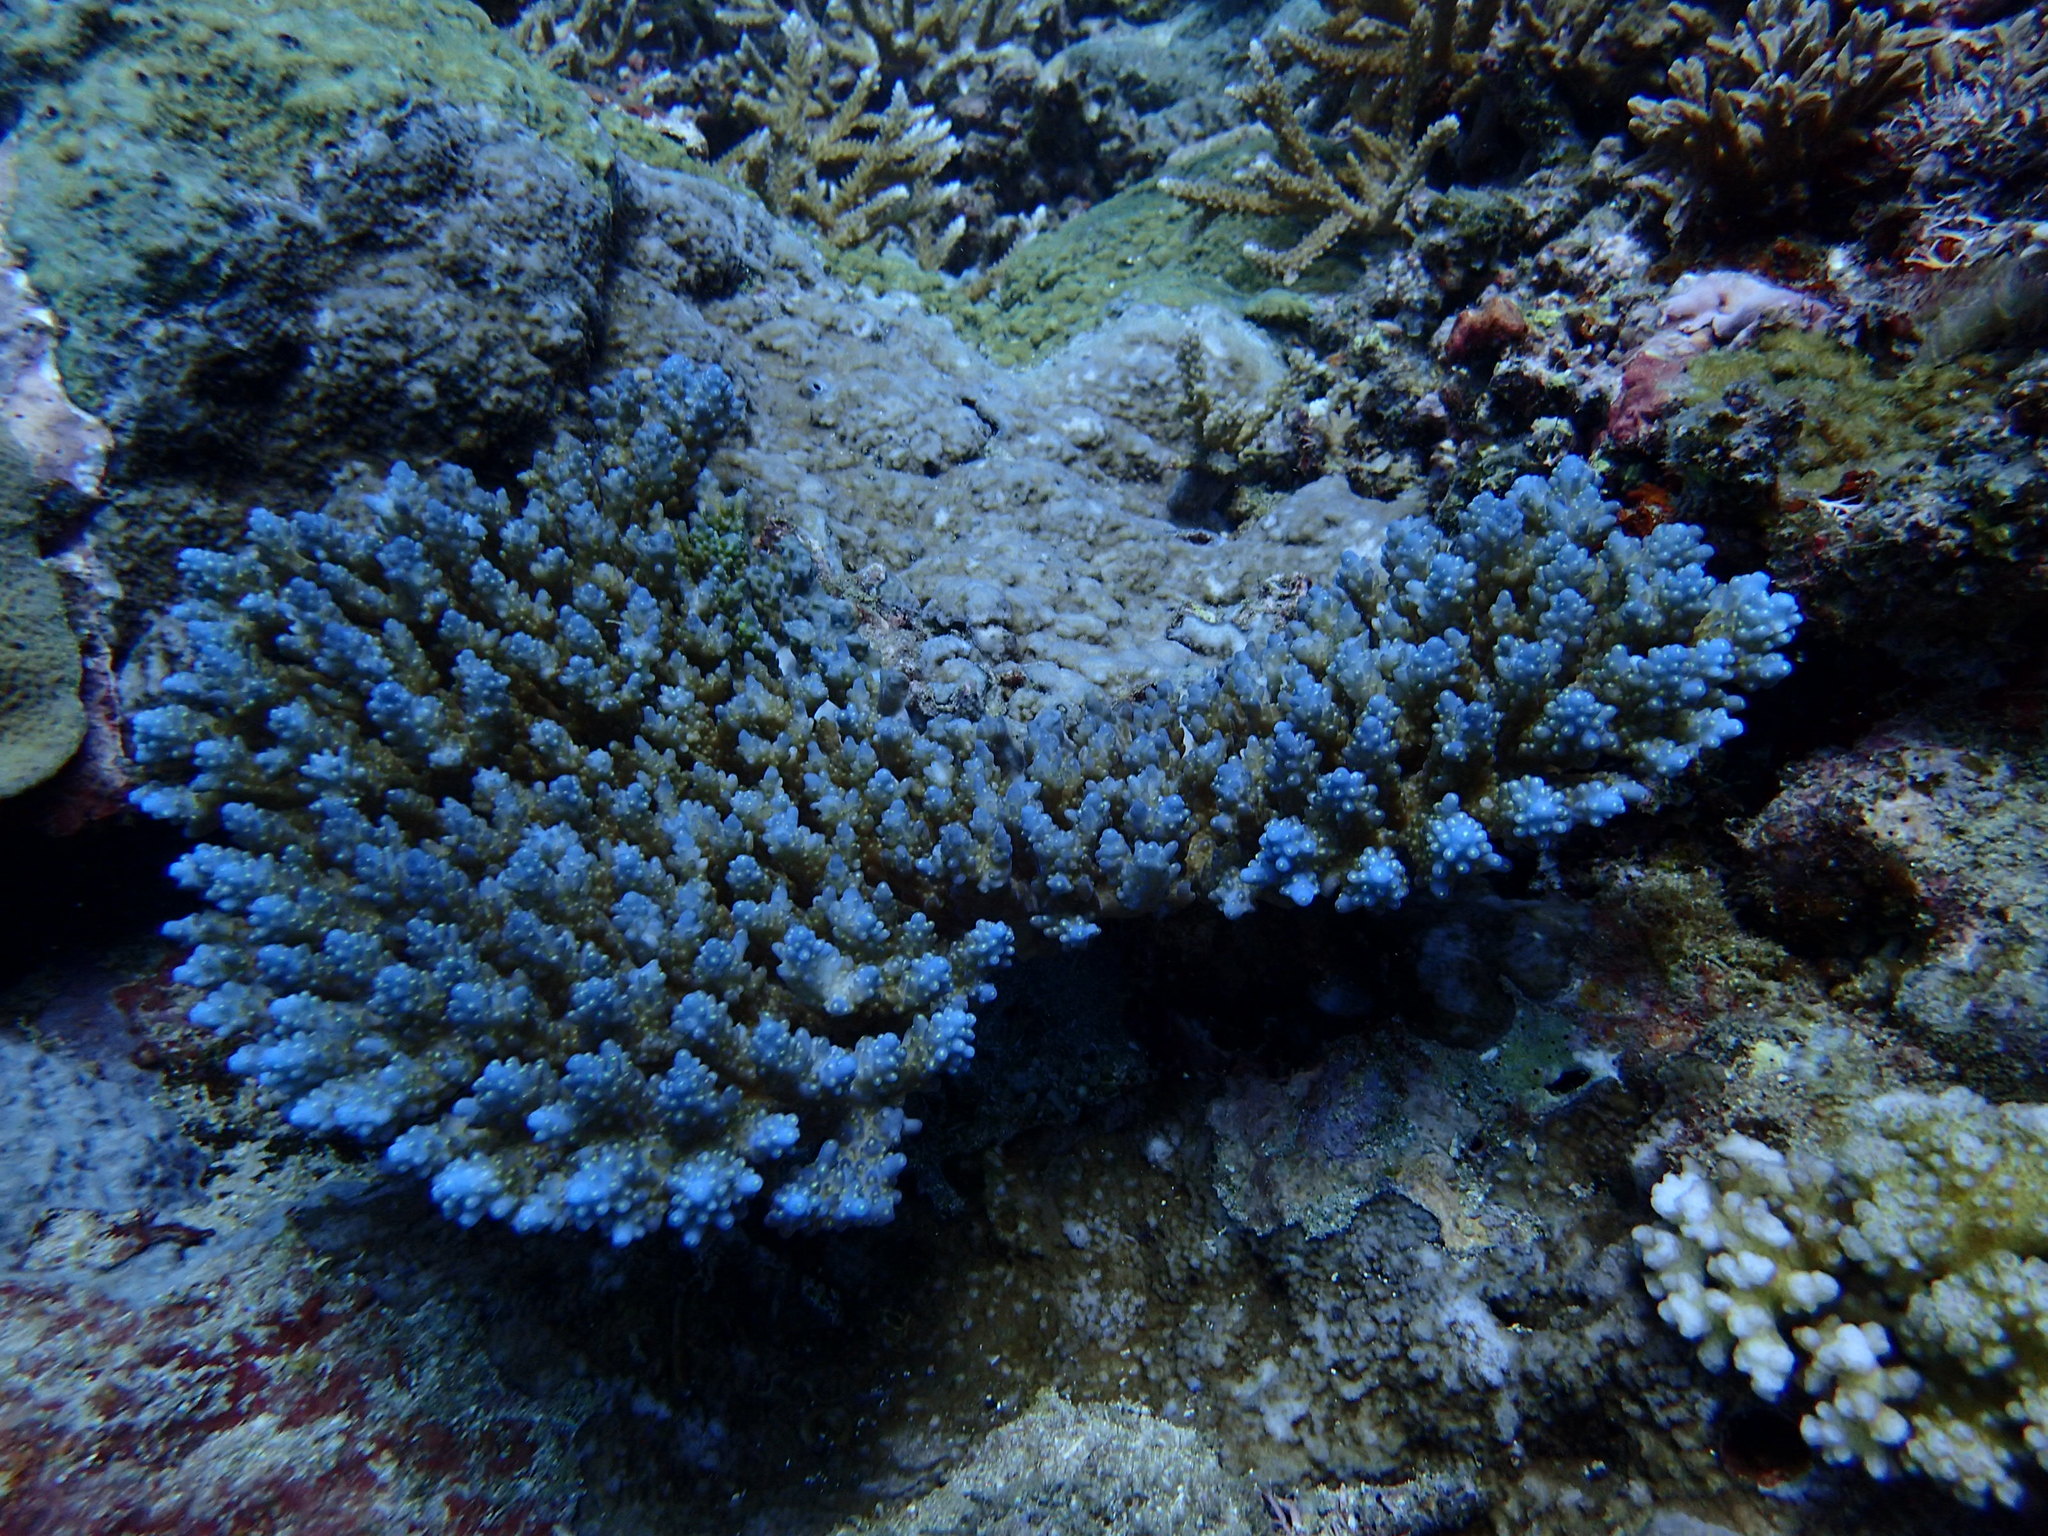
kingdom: Animalia
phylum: Cnidaria
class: Anthozoa
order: Scleractinia
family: Acroporidae
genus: Acropora
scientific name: Acropora valida
